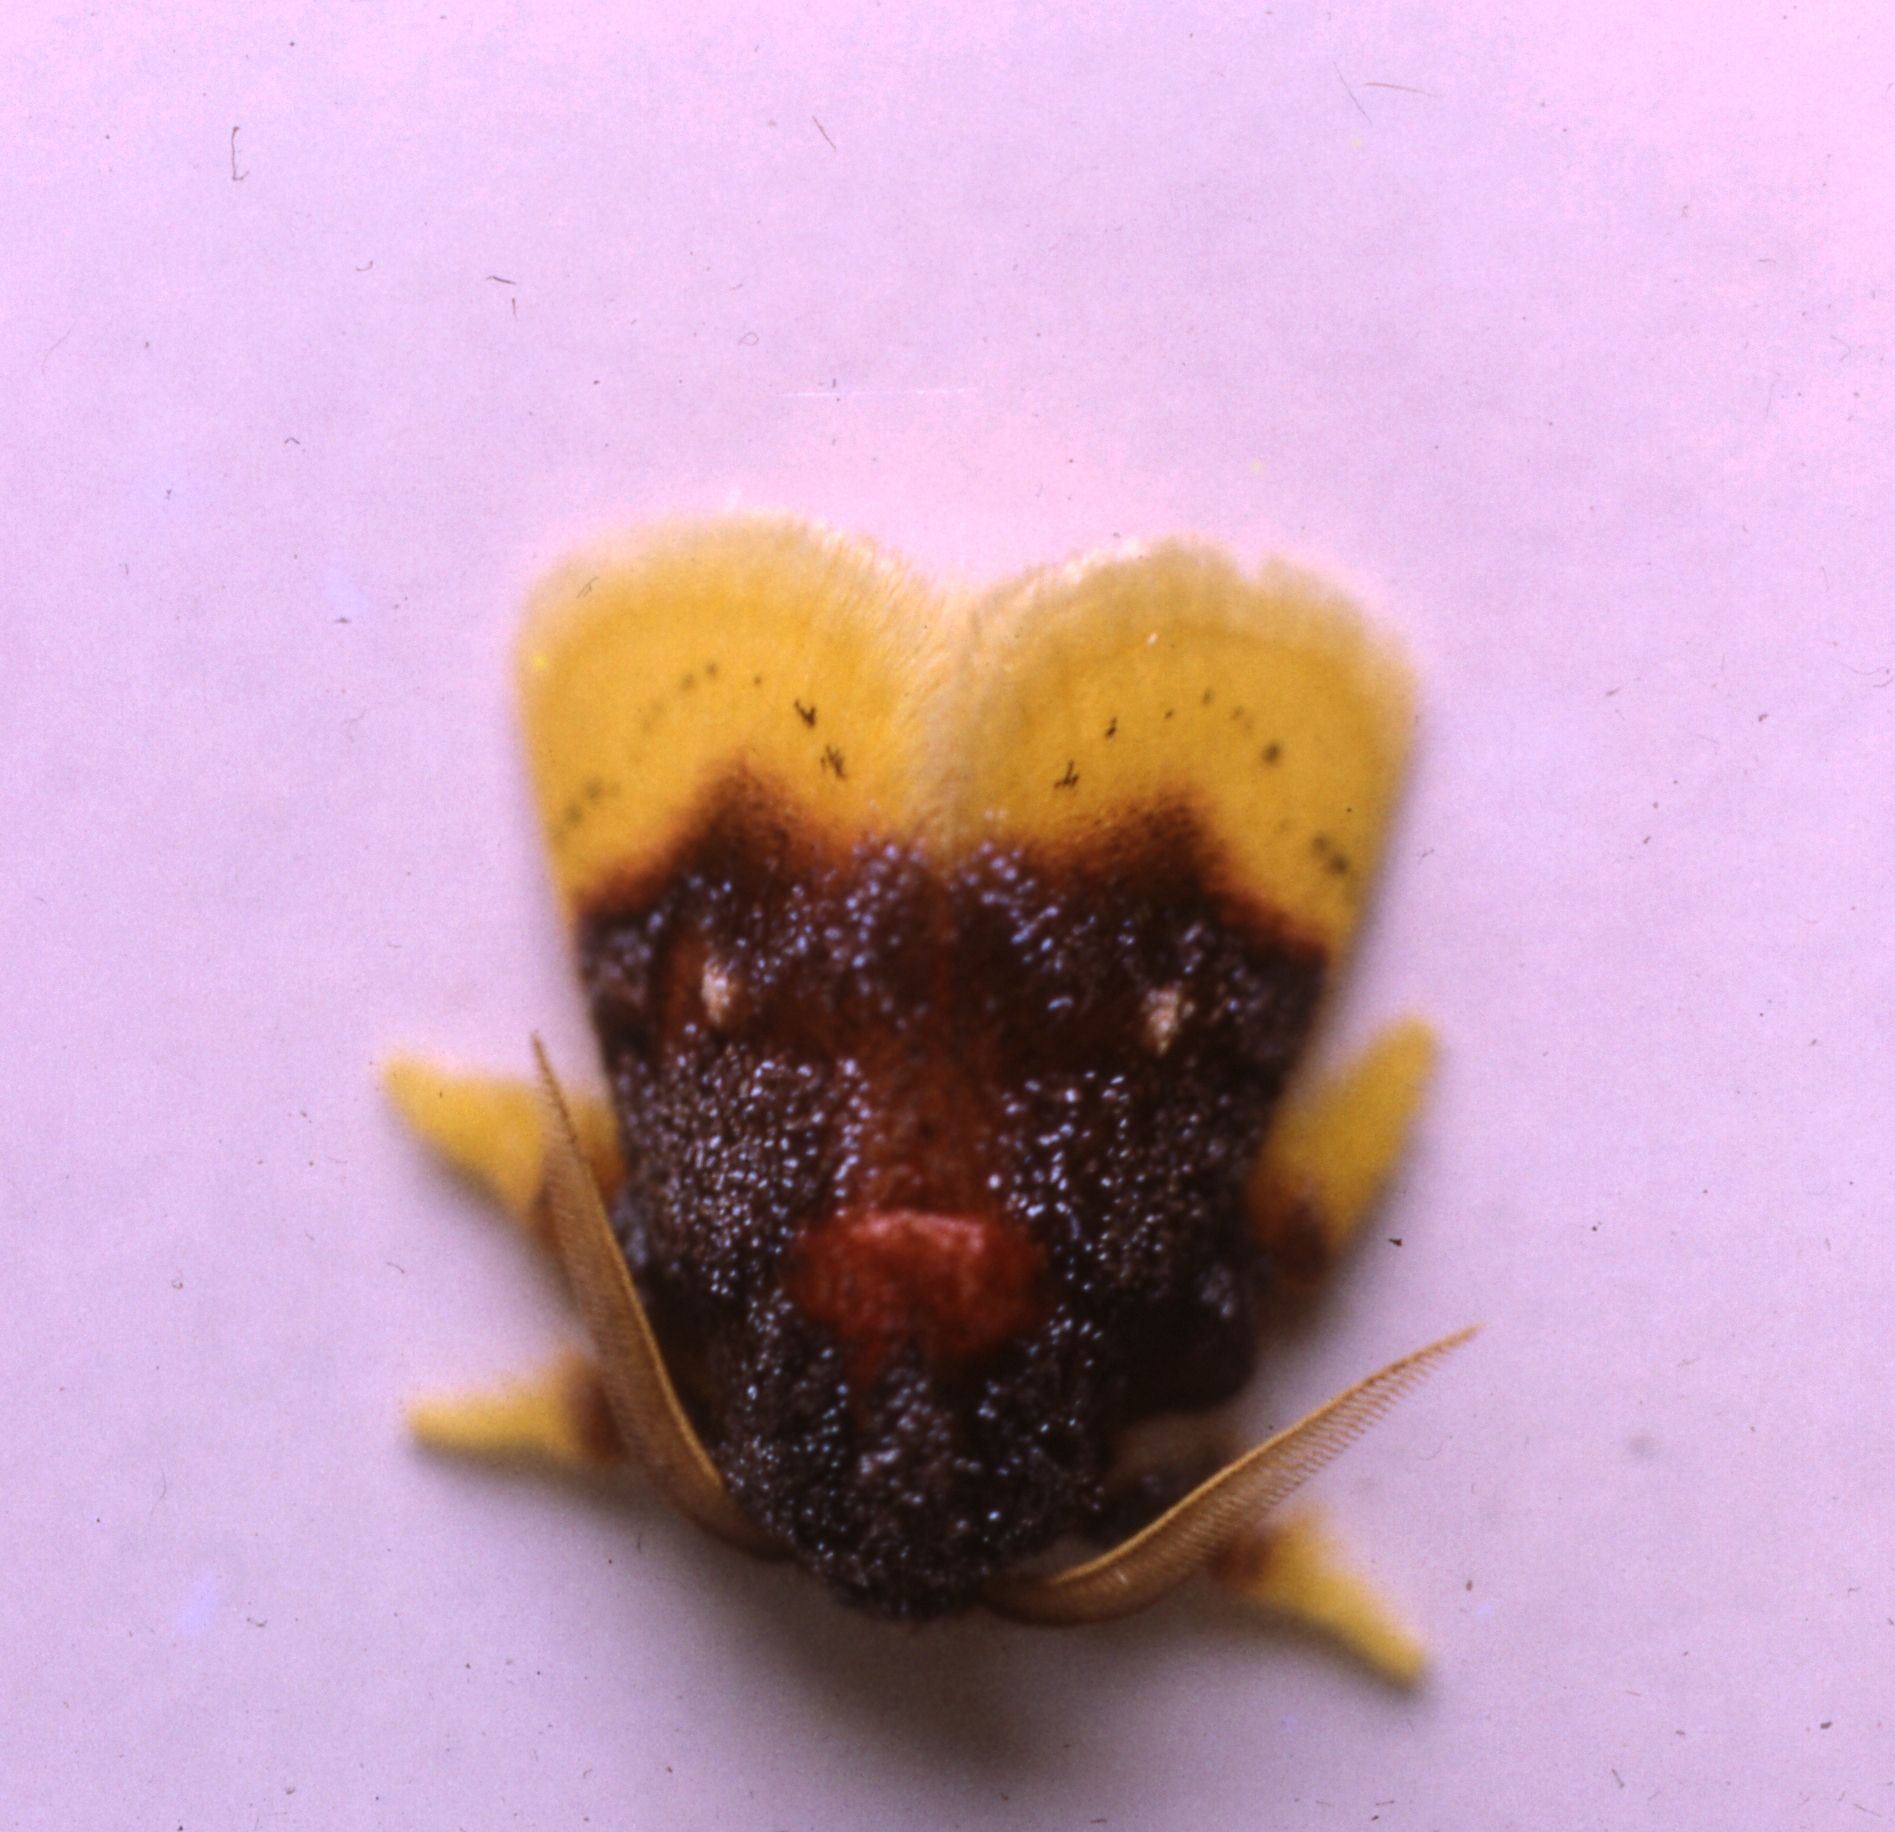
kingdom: Animalia
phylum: Arthropoda
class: Insecta
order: Lepidoptera
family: Limacodidae
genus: Chrysamma
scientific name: Chrysamma purpuripulcra
